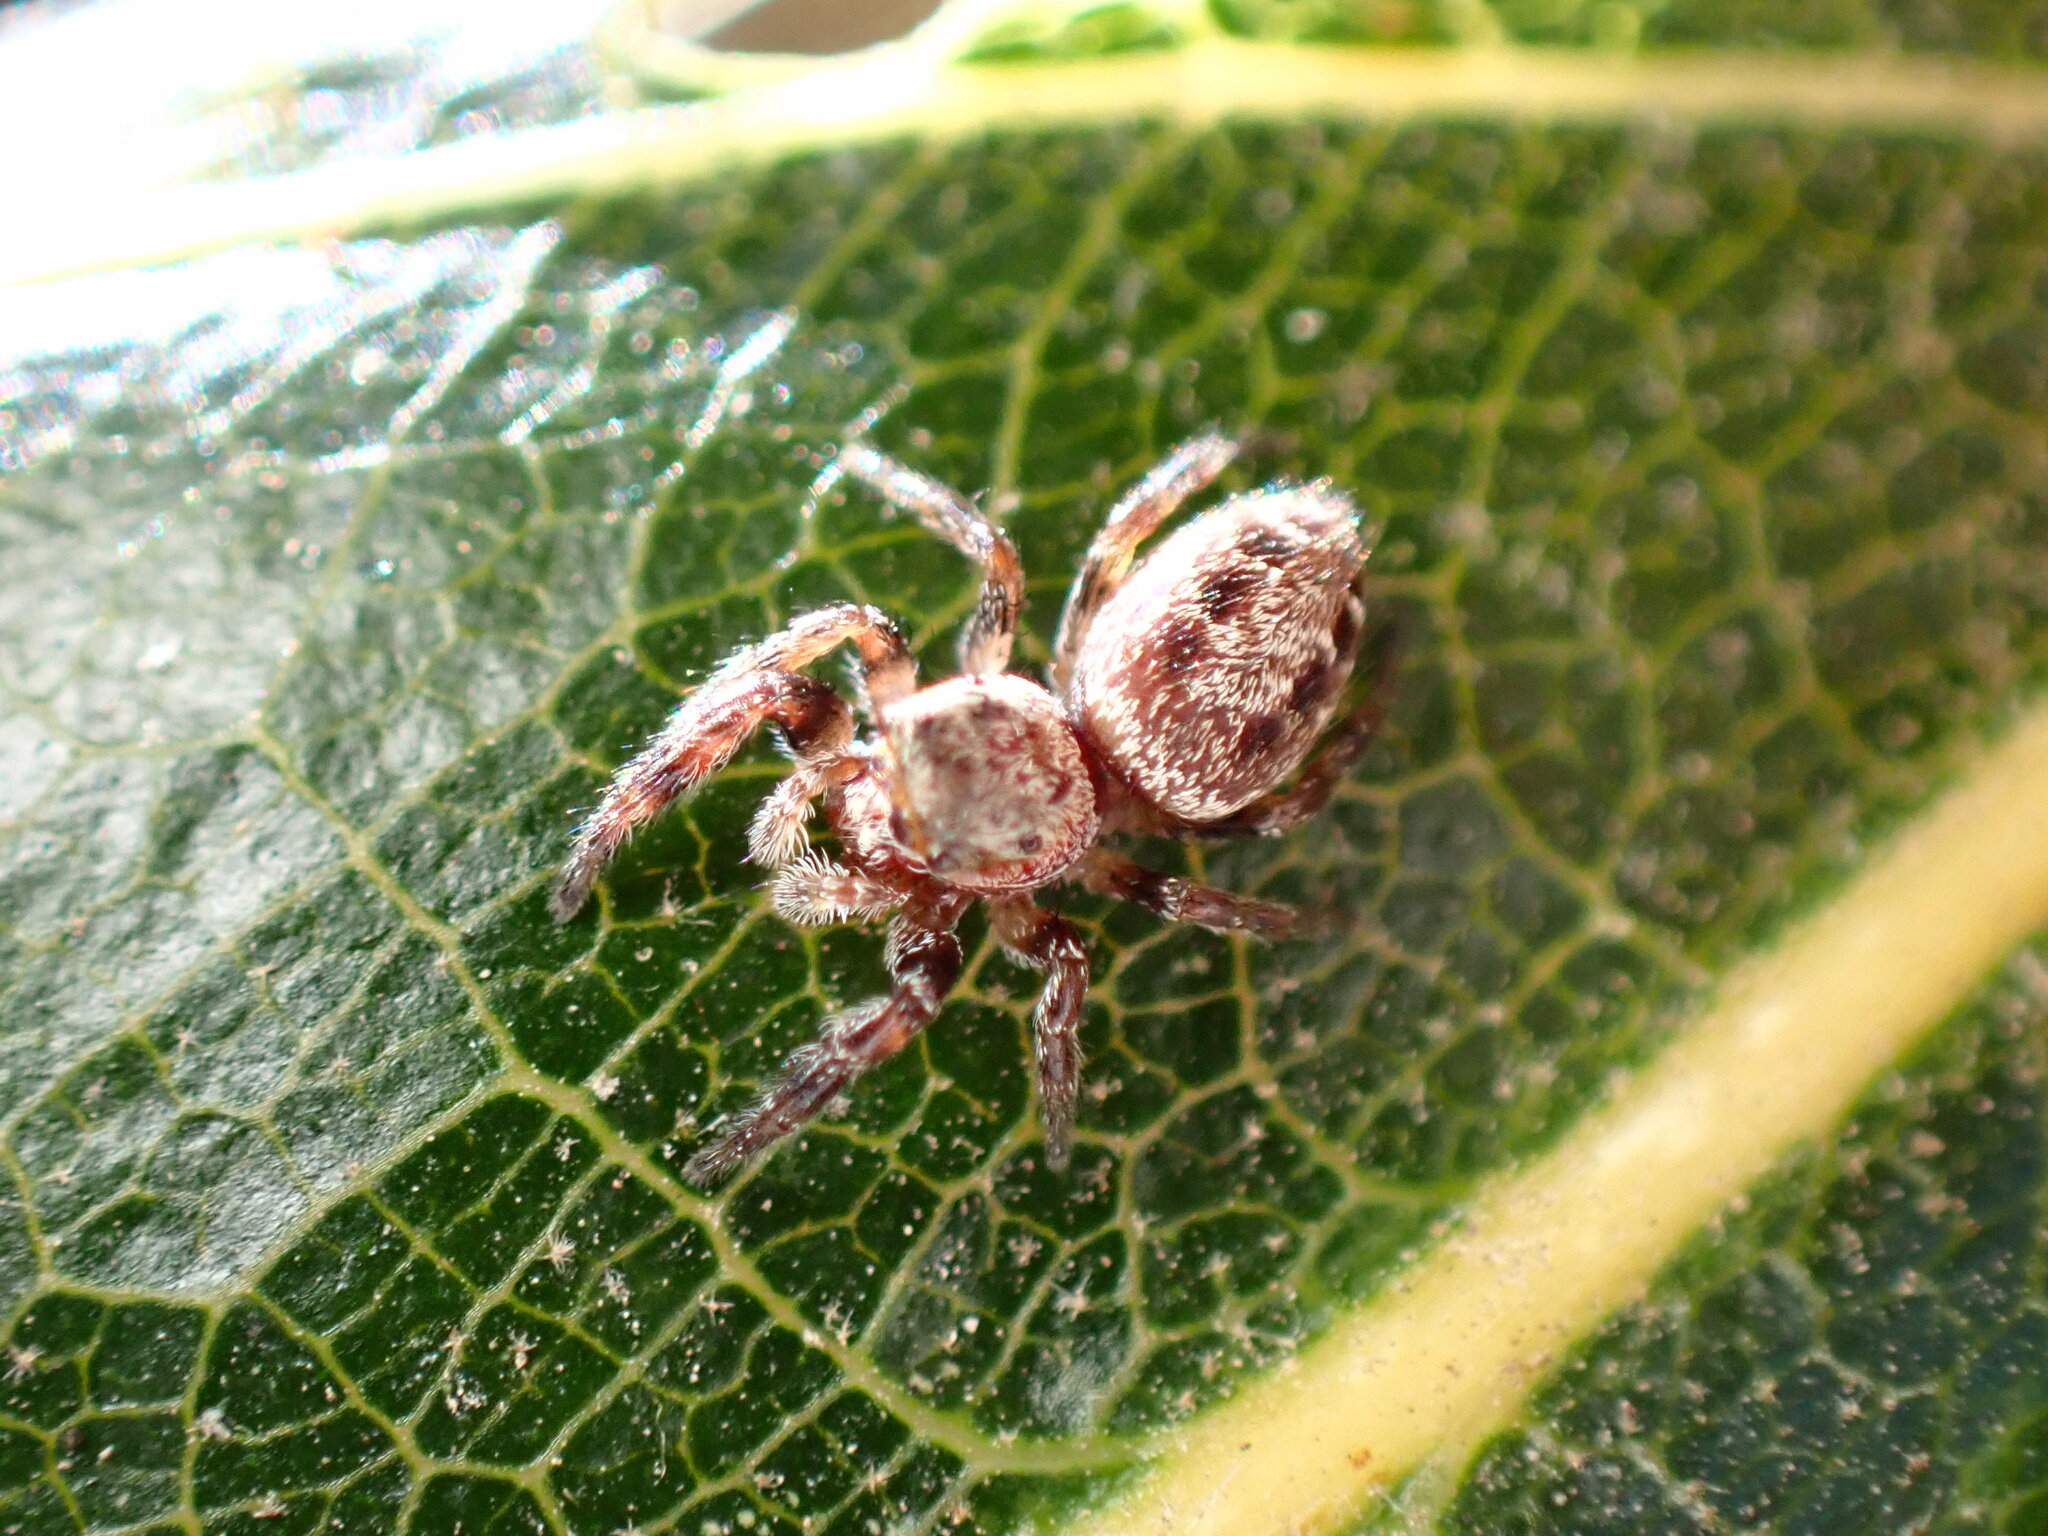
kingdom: Animalia
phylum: Arthropoda
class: Arachnida
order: Araneae
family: Salticidae
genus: Metaphidippus
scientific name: Metaphidippus manni
